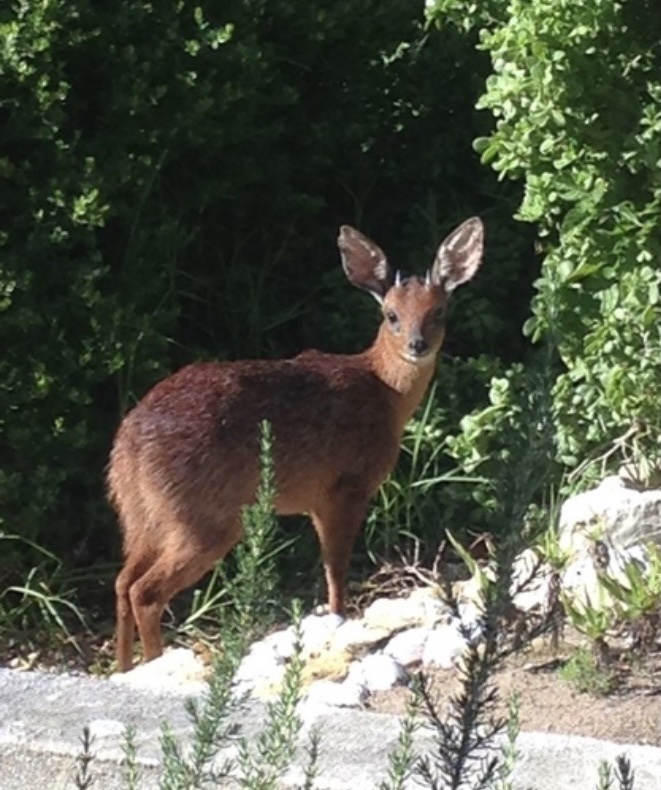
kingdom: Animalia
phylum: Chordata
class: Mammalia
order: Artiodactyla
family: Bovidae
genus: Raphicerus
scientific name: Raphicerus melanotis
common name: Cape grysbok
